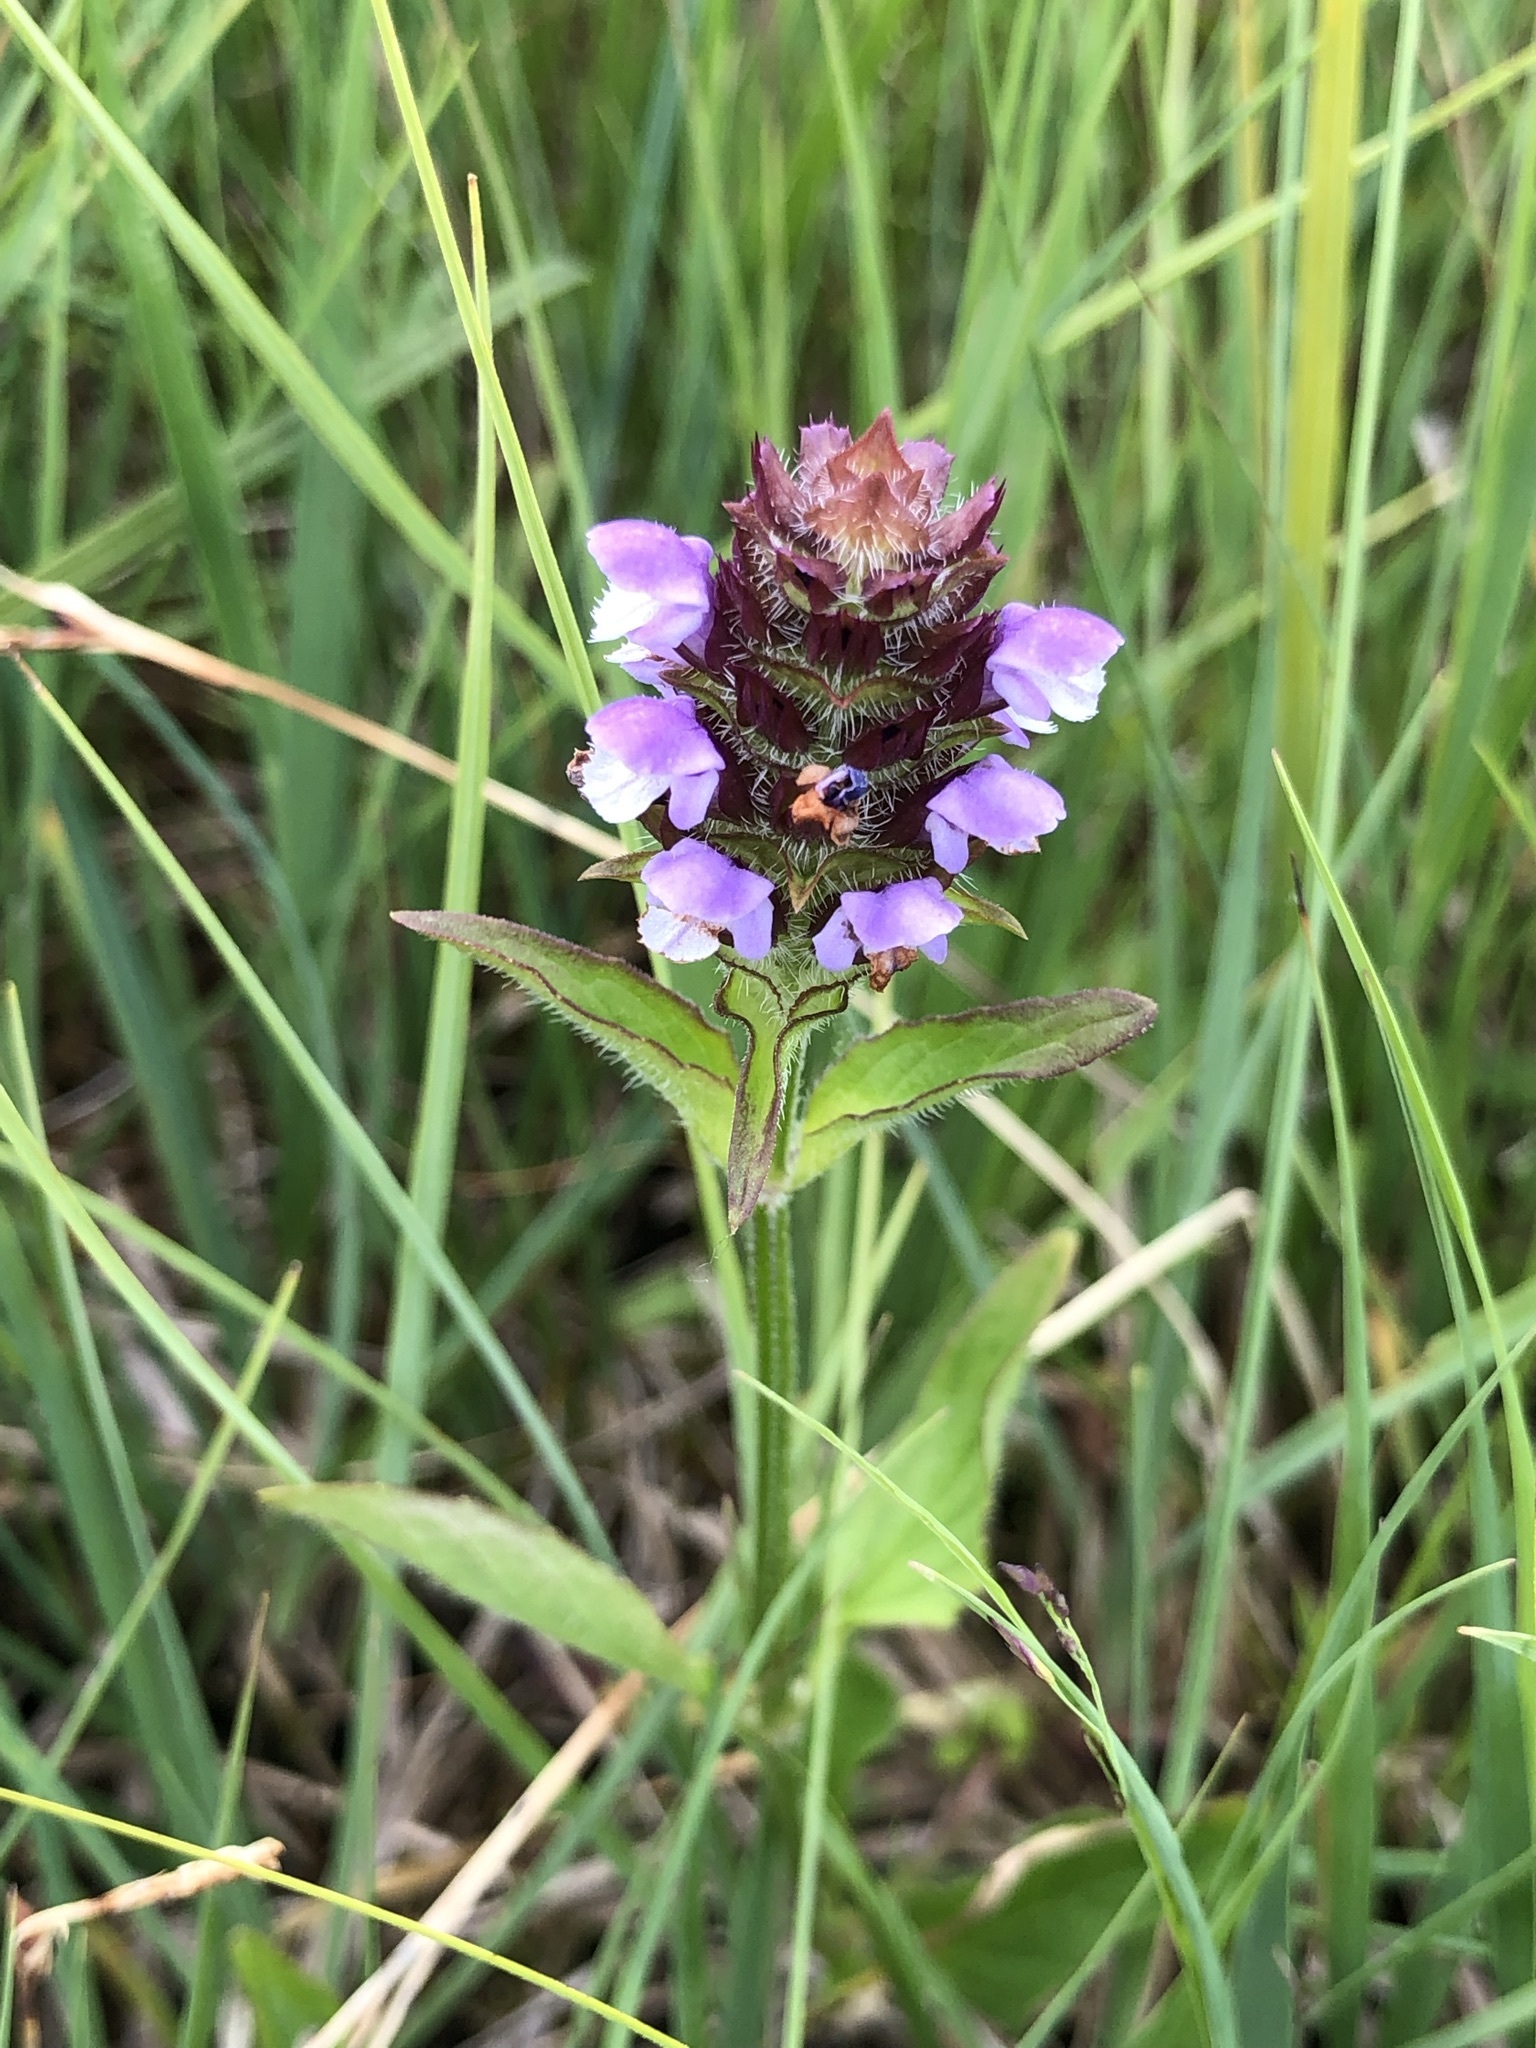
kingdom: Plantae
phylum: Tracheophyta
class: Magnoliopsida
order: Lamiales
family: Lamiaceae
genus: Prunella
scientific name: Prunella vulgaris
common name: Heal-all
